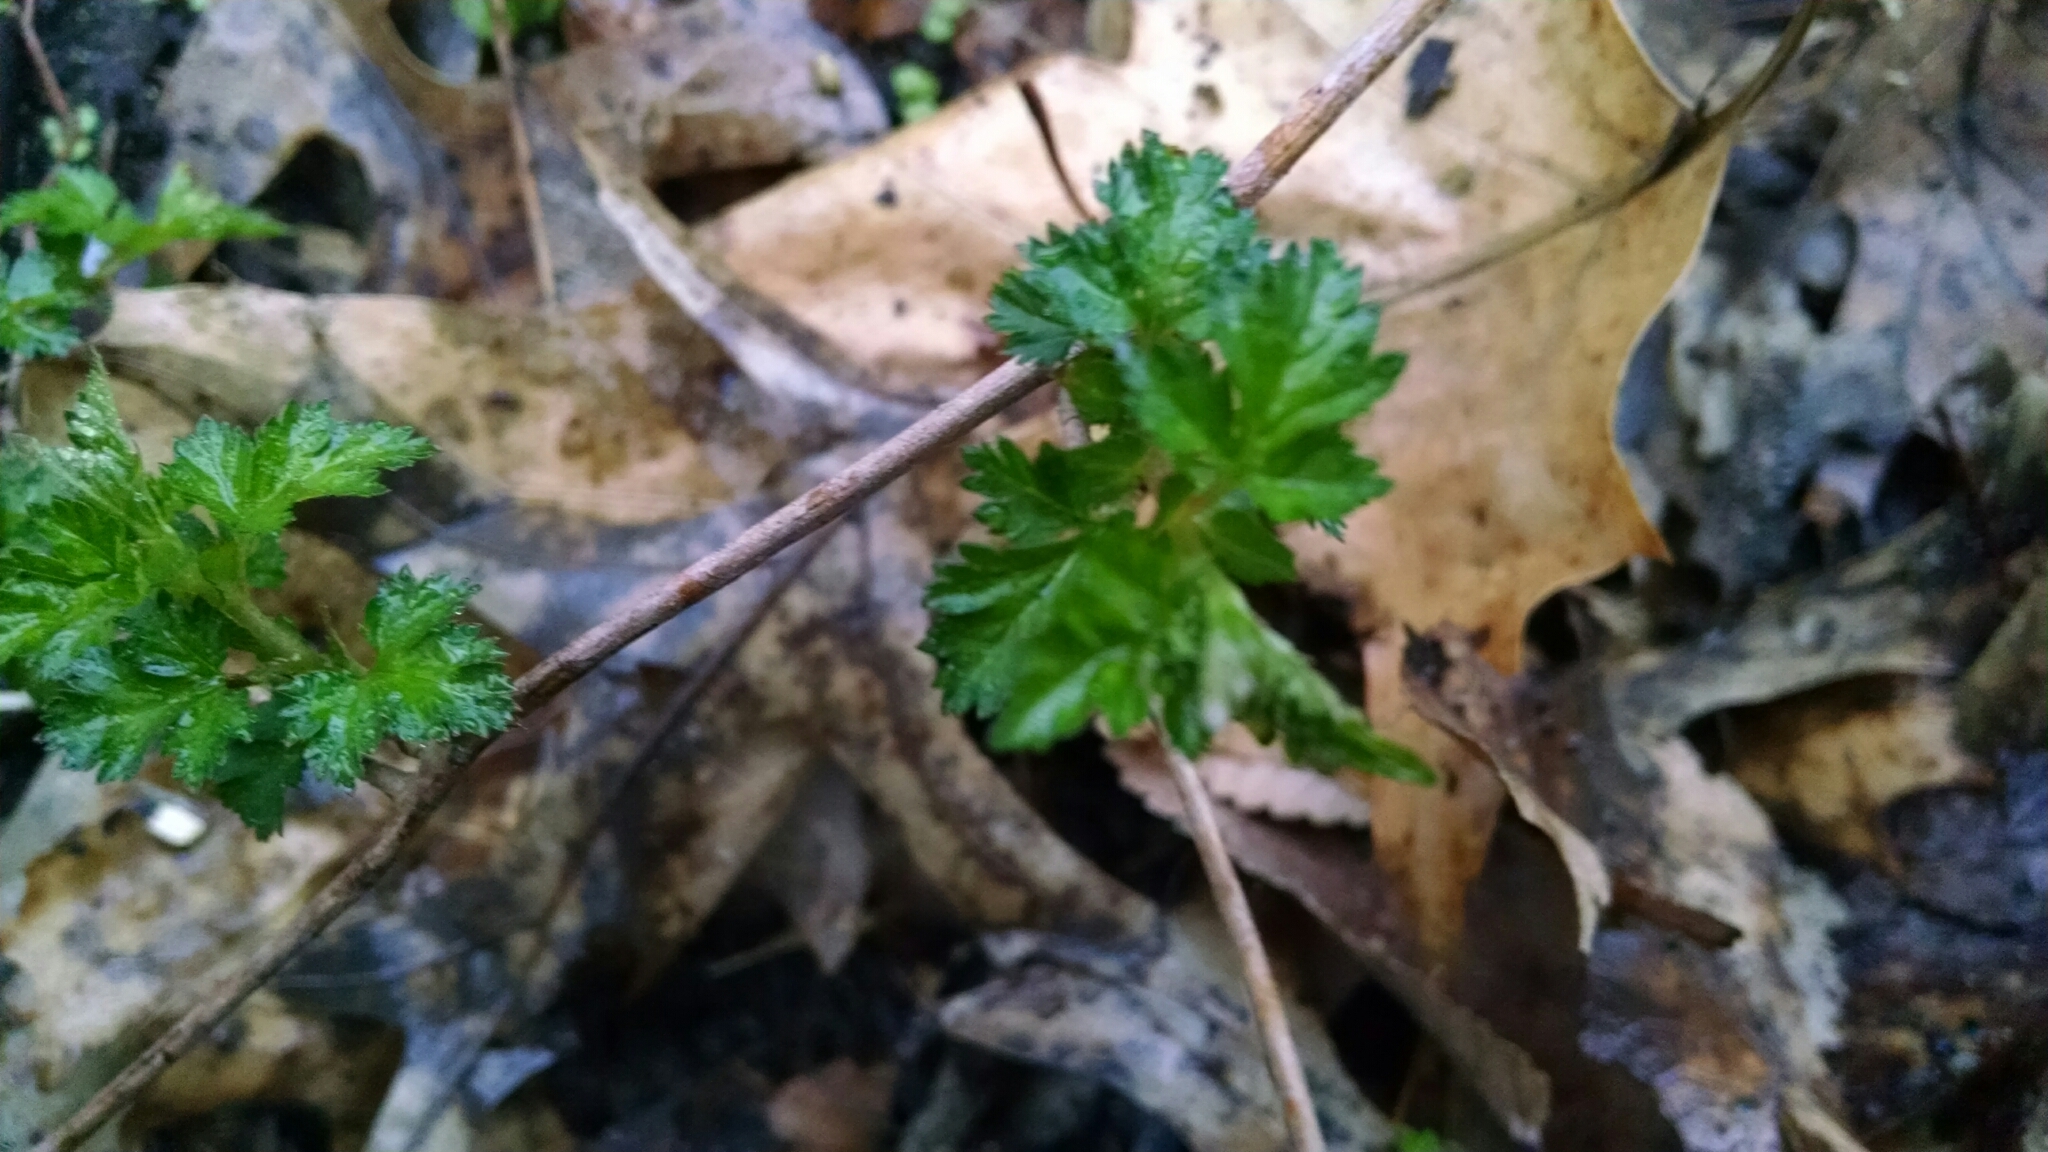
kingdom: Plantae
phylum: Tracheophyta
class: Magnoliopsida
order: Asterales
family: Asteraceae
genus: Artemisia
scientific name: Artemisia vulgaris
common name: Mugwort
